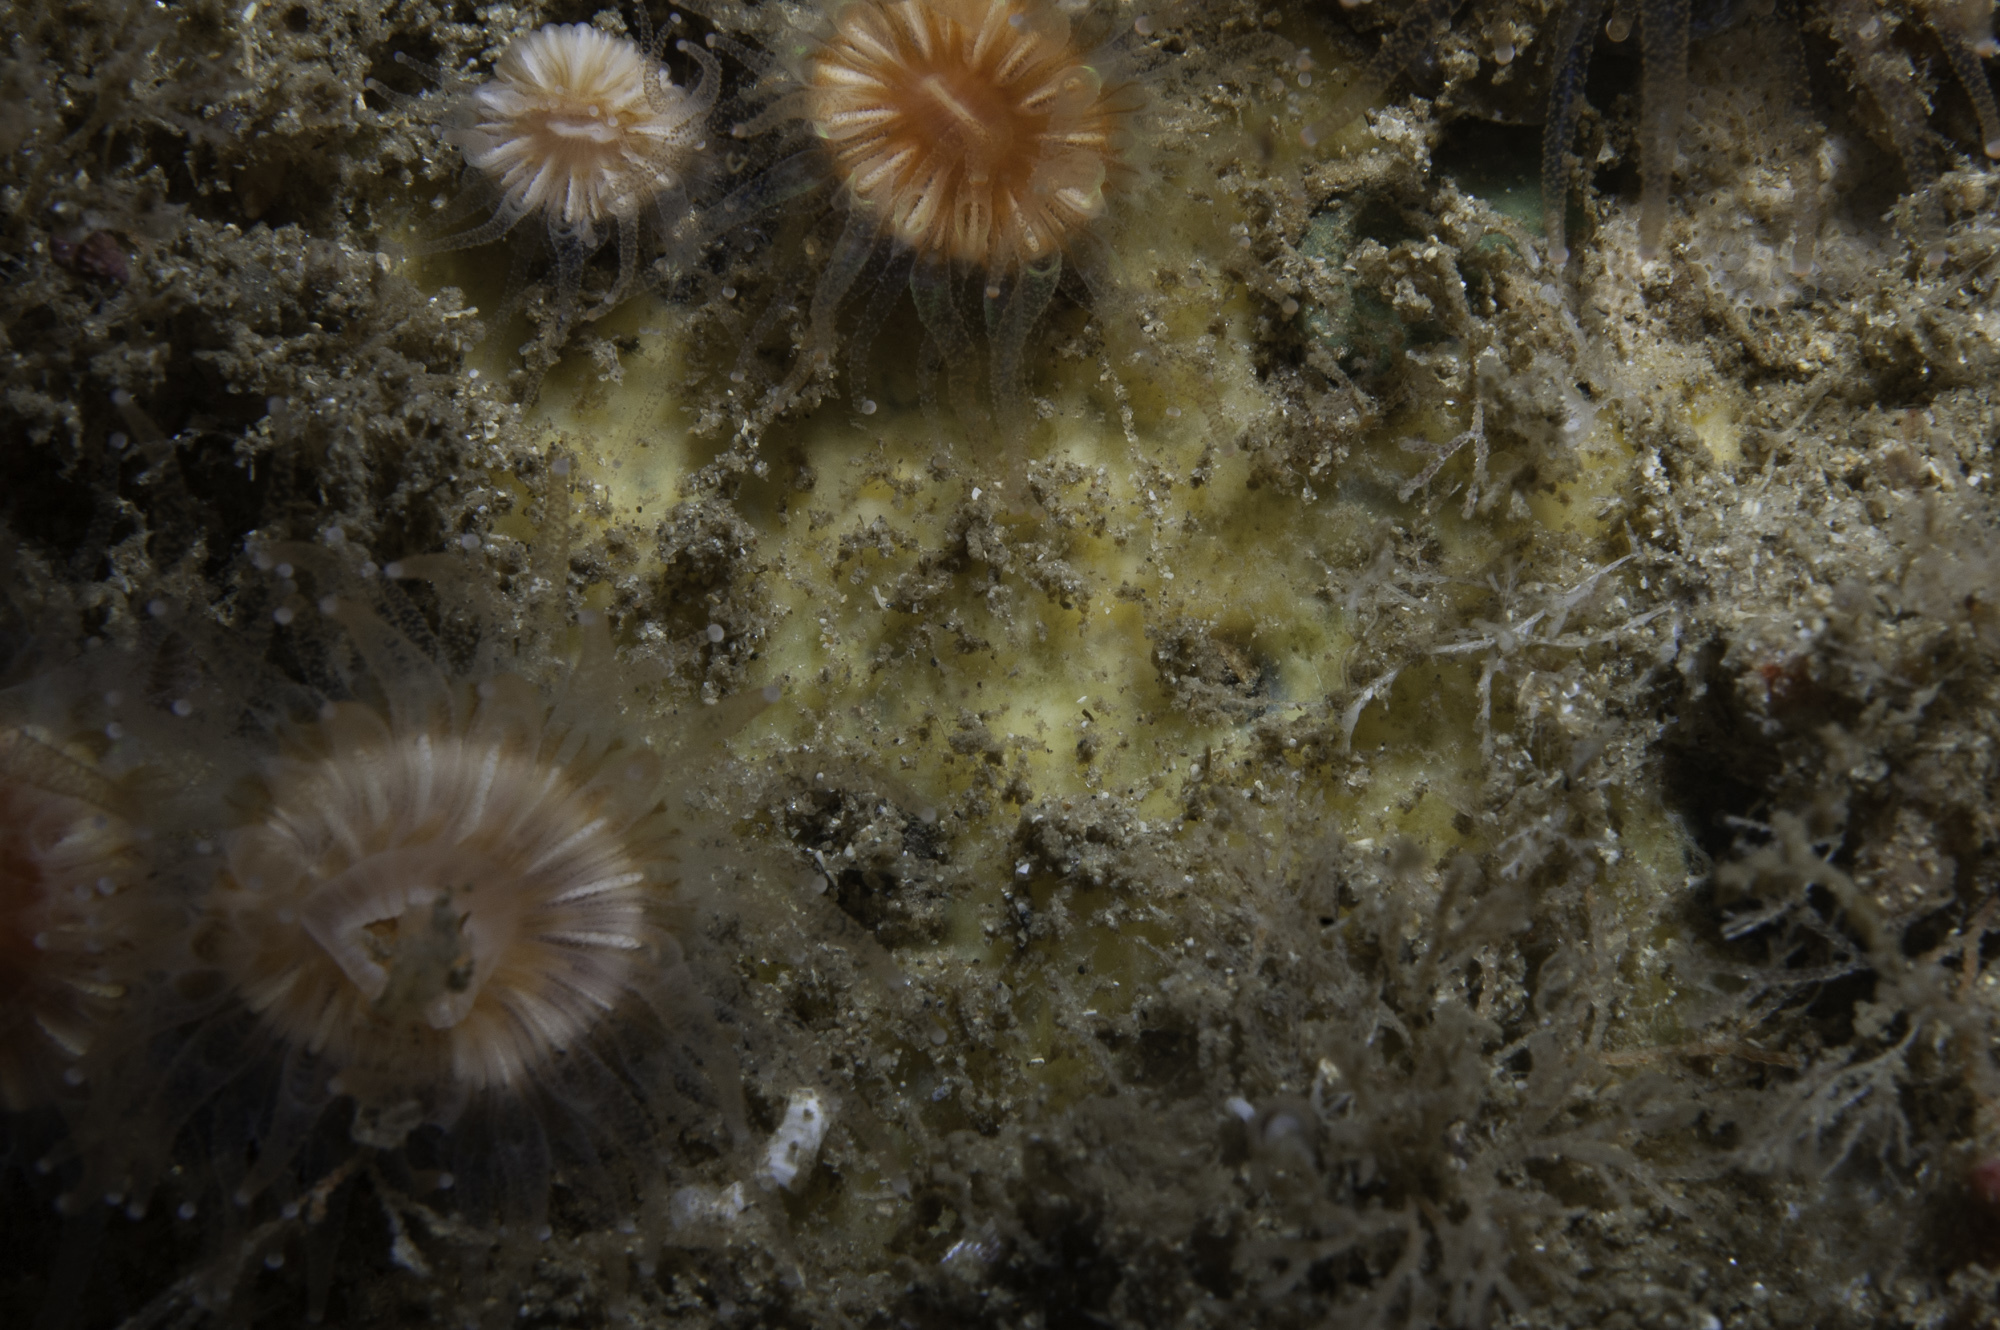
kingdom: Animalia
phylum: Porifera
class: Demospongiae
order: Axinellida
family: Stelligeridae
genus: Paratimea
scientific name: Paratimea loennbergi
